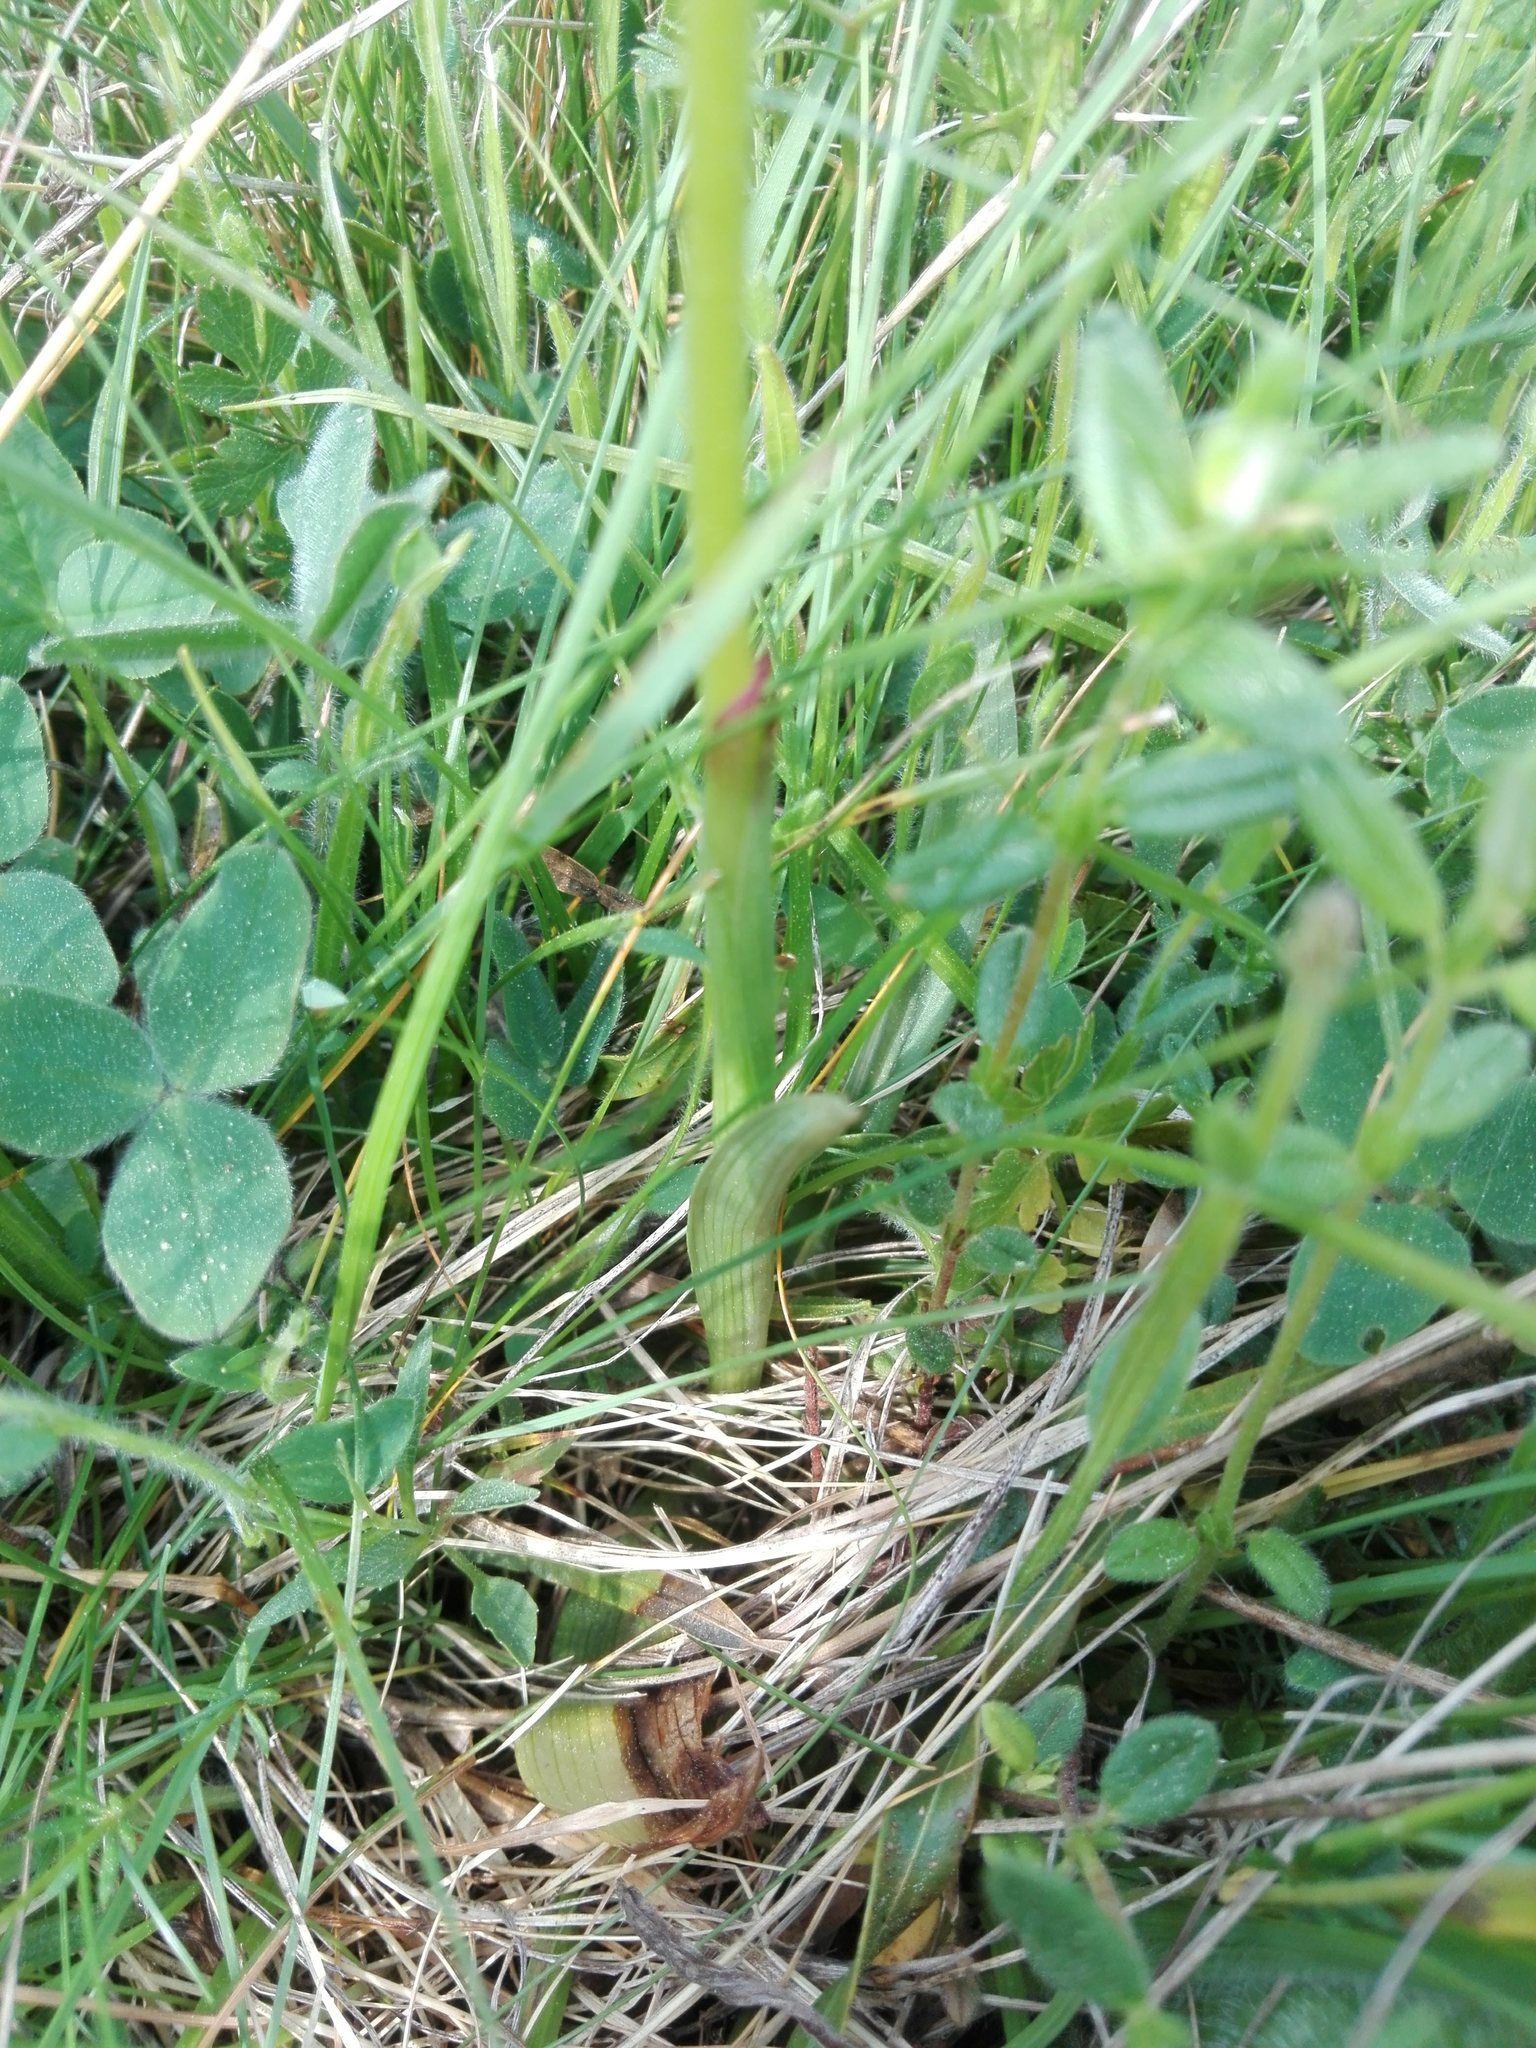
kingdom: Plantae
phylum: Tracheophyta
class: Liliopsida
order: Asparagales
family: Orchidaceae
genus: Neotinea
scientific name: Neotinea ustulata
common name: Burnt orchid
